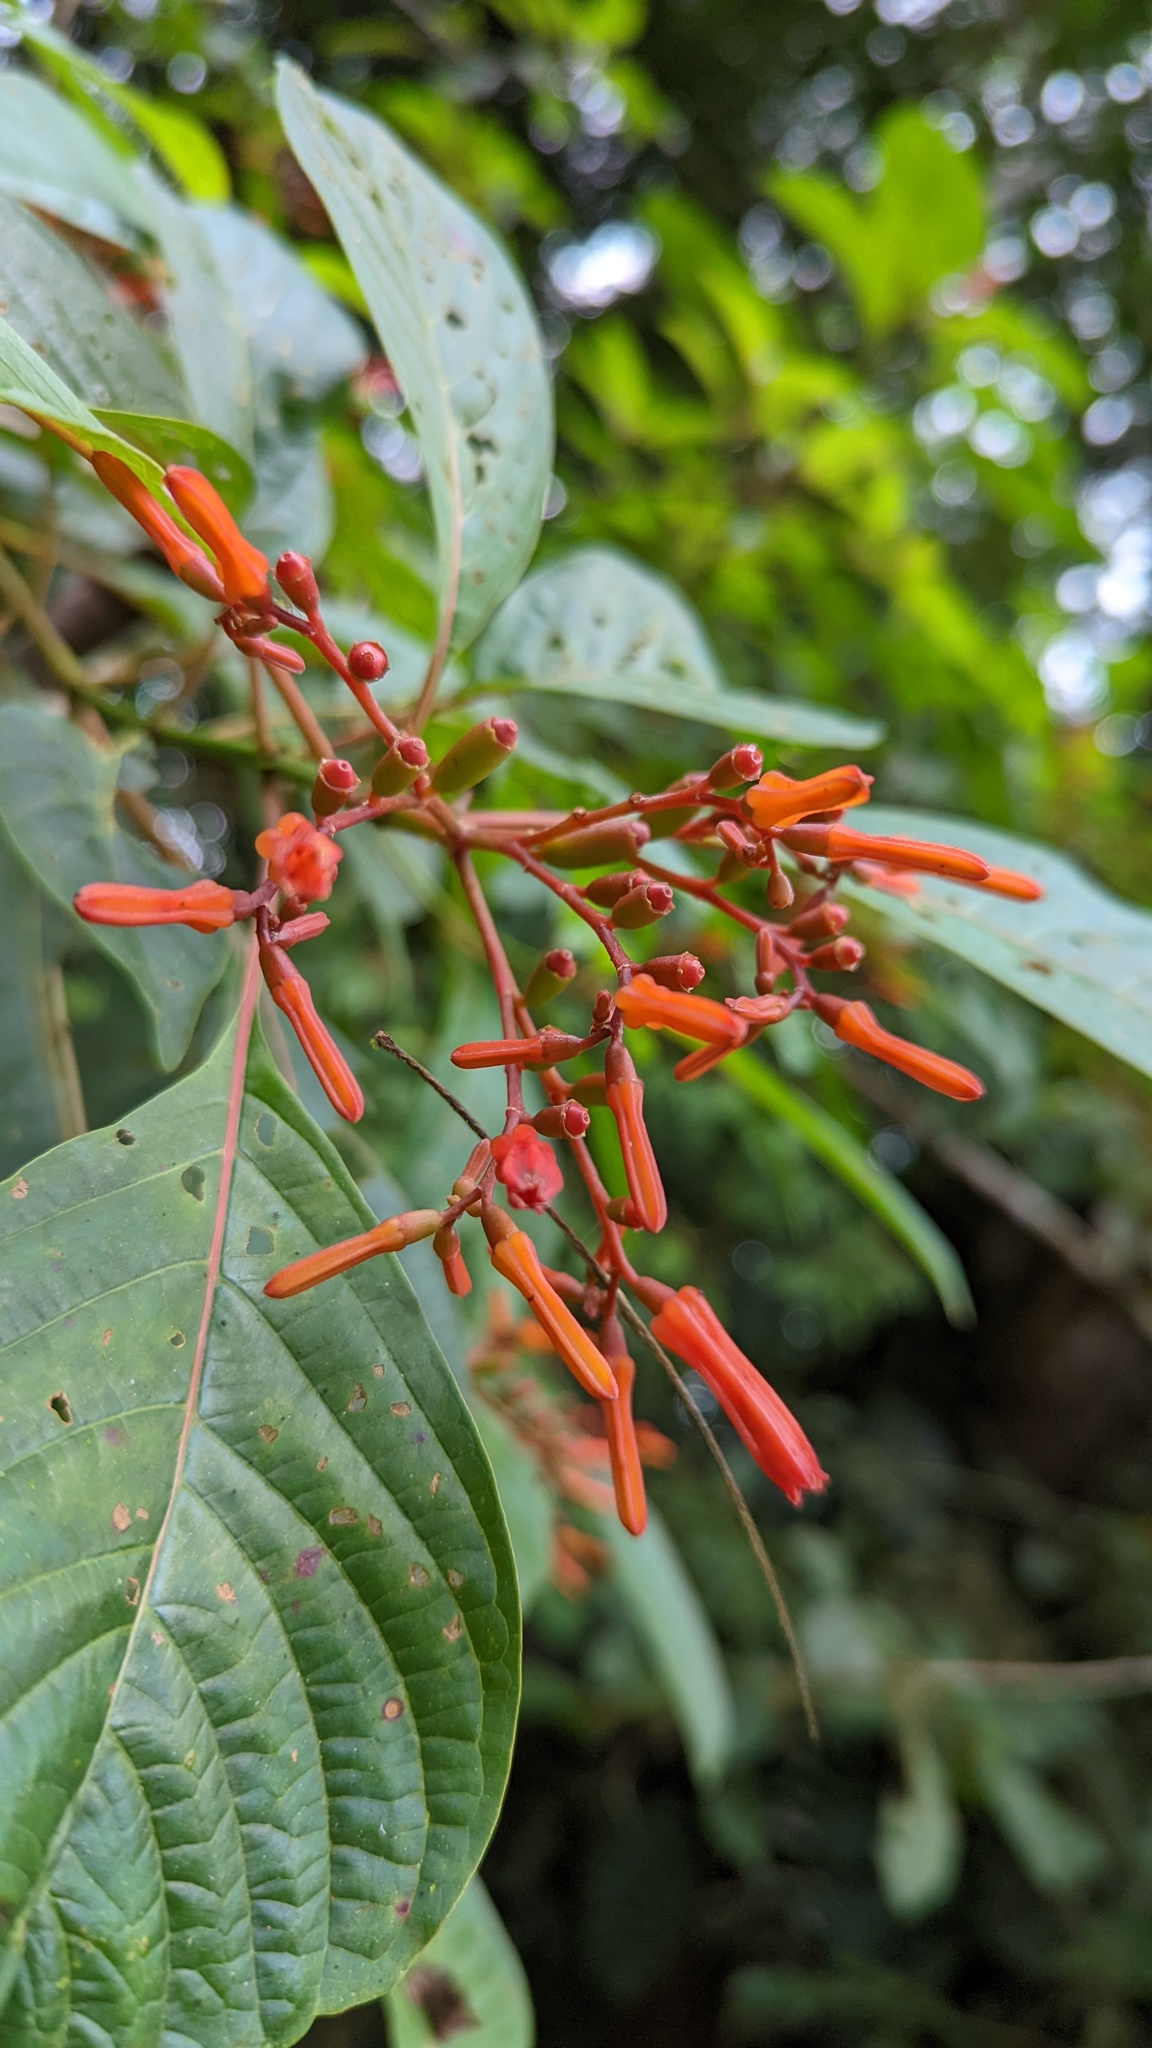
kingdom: Plantae
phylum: Tracheophyta
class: Magnoliopsida
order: Gentianales
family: Rubiaceae
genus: Hamelia
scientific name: Hamelia patens
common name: Redhead
